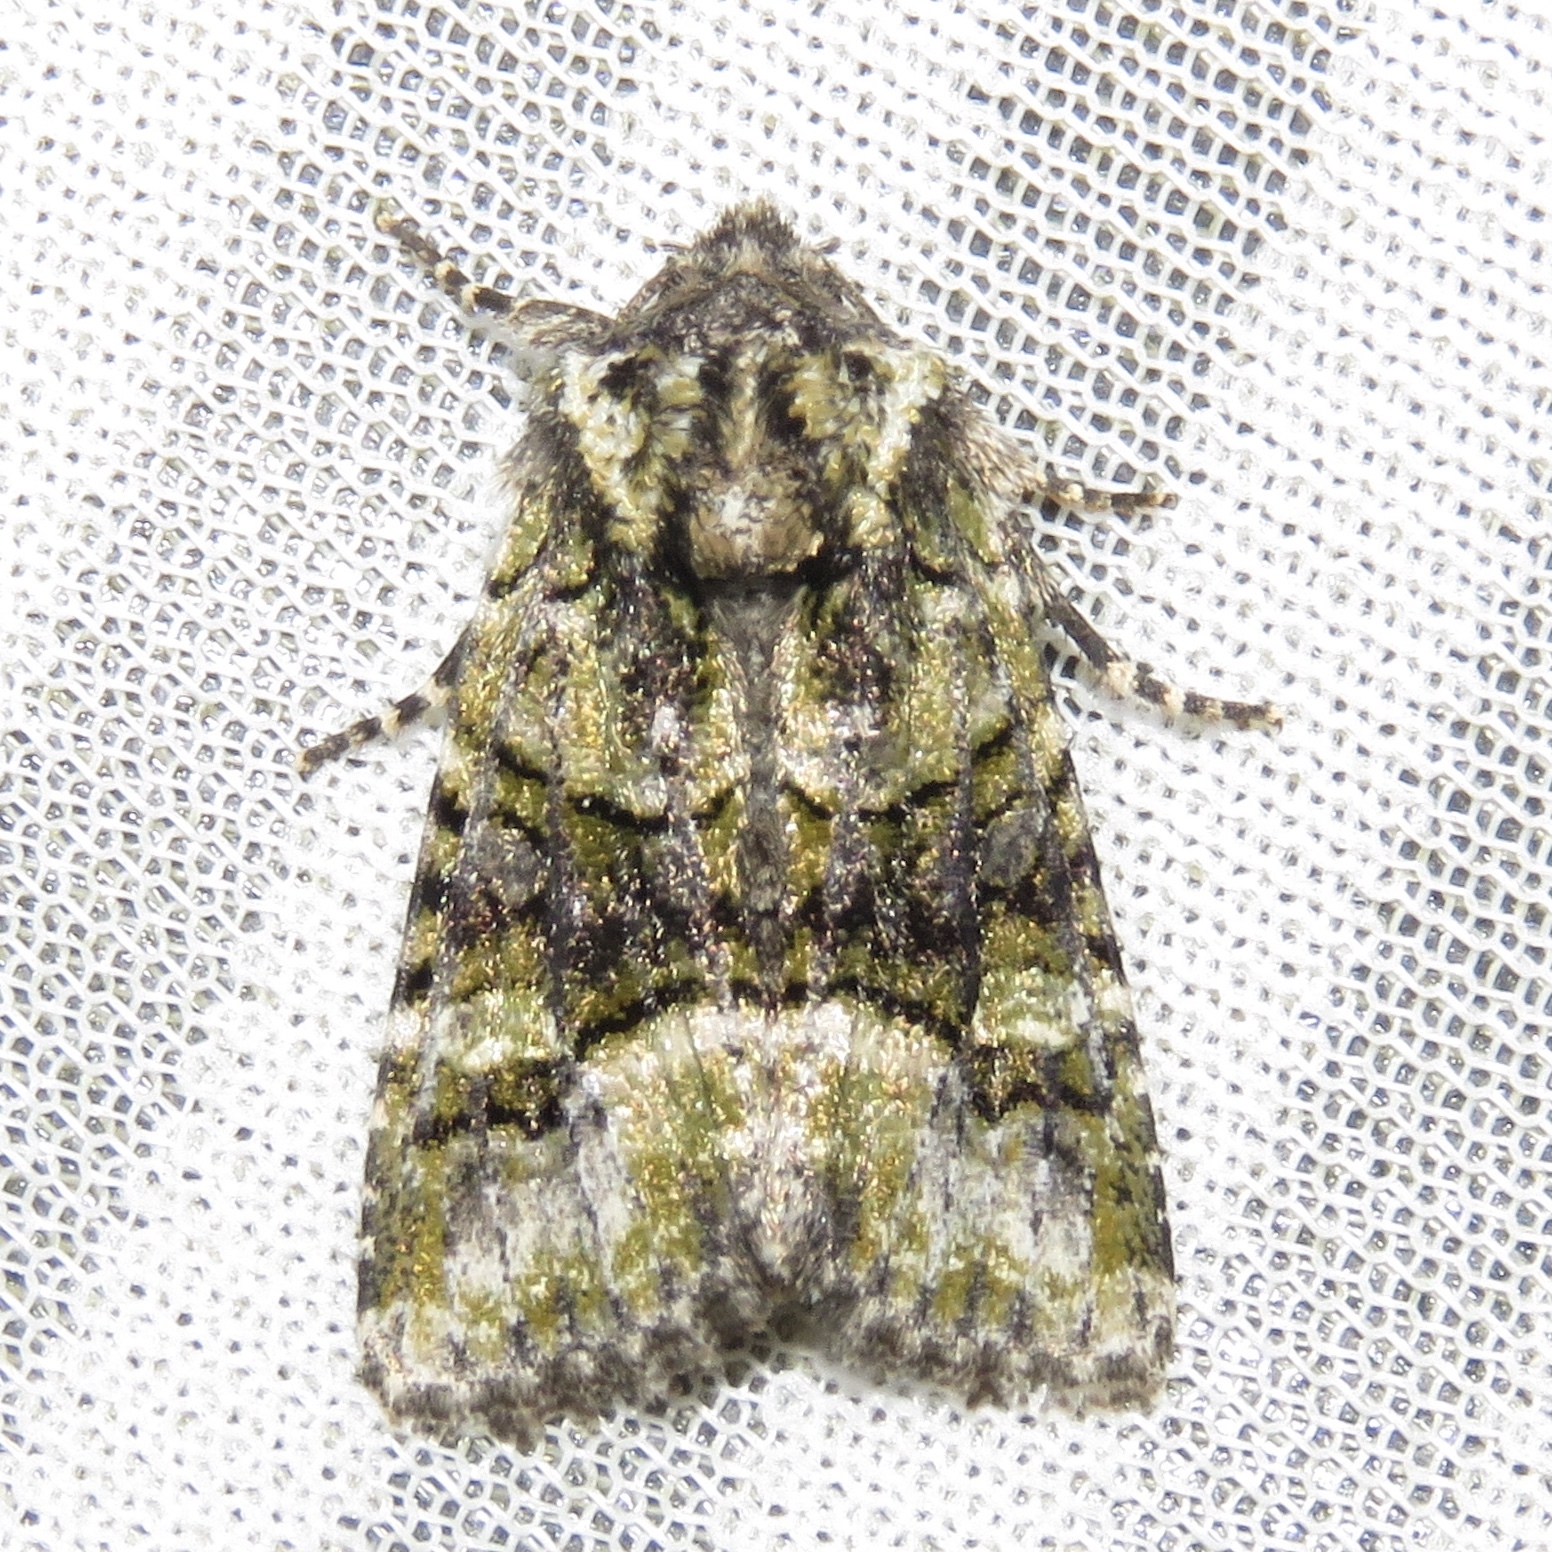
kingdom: Animalia
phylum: Arthropoda
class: Insecta
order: Lepidoptera
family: Noctuidae
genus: Lacinipolia
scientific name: Lacinipolia olivacea
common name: Olive arches moth
